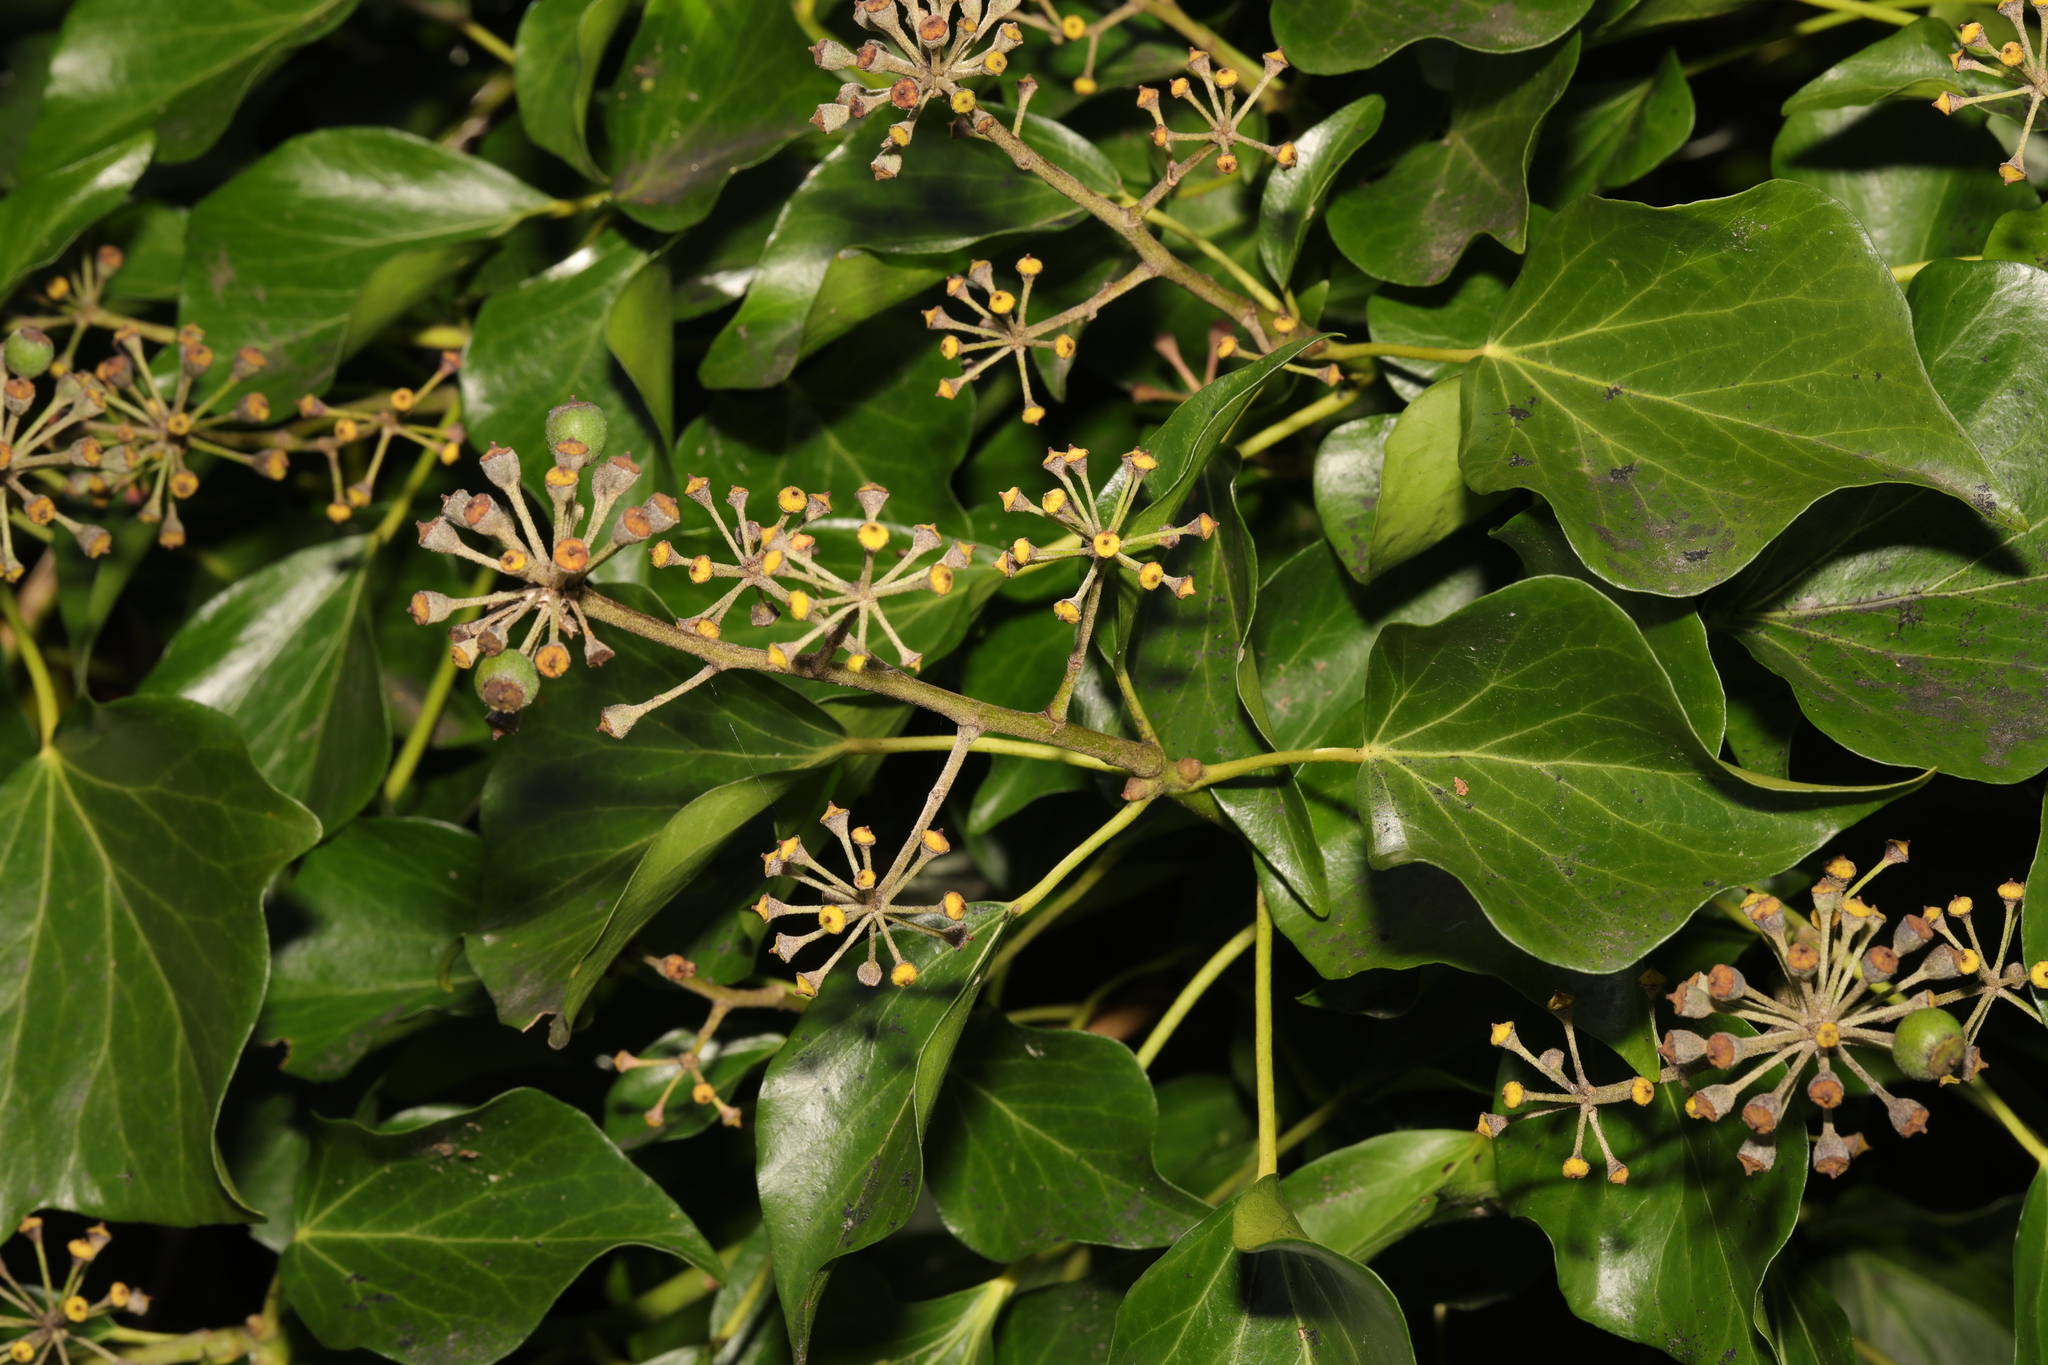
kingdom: Plantae
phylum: Tracheophyta
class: Magnoliopsida
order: Apiales
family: Araliaceae
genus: Hedera
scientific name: Hedera helix
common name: Ivy
